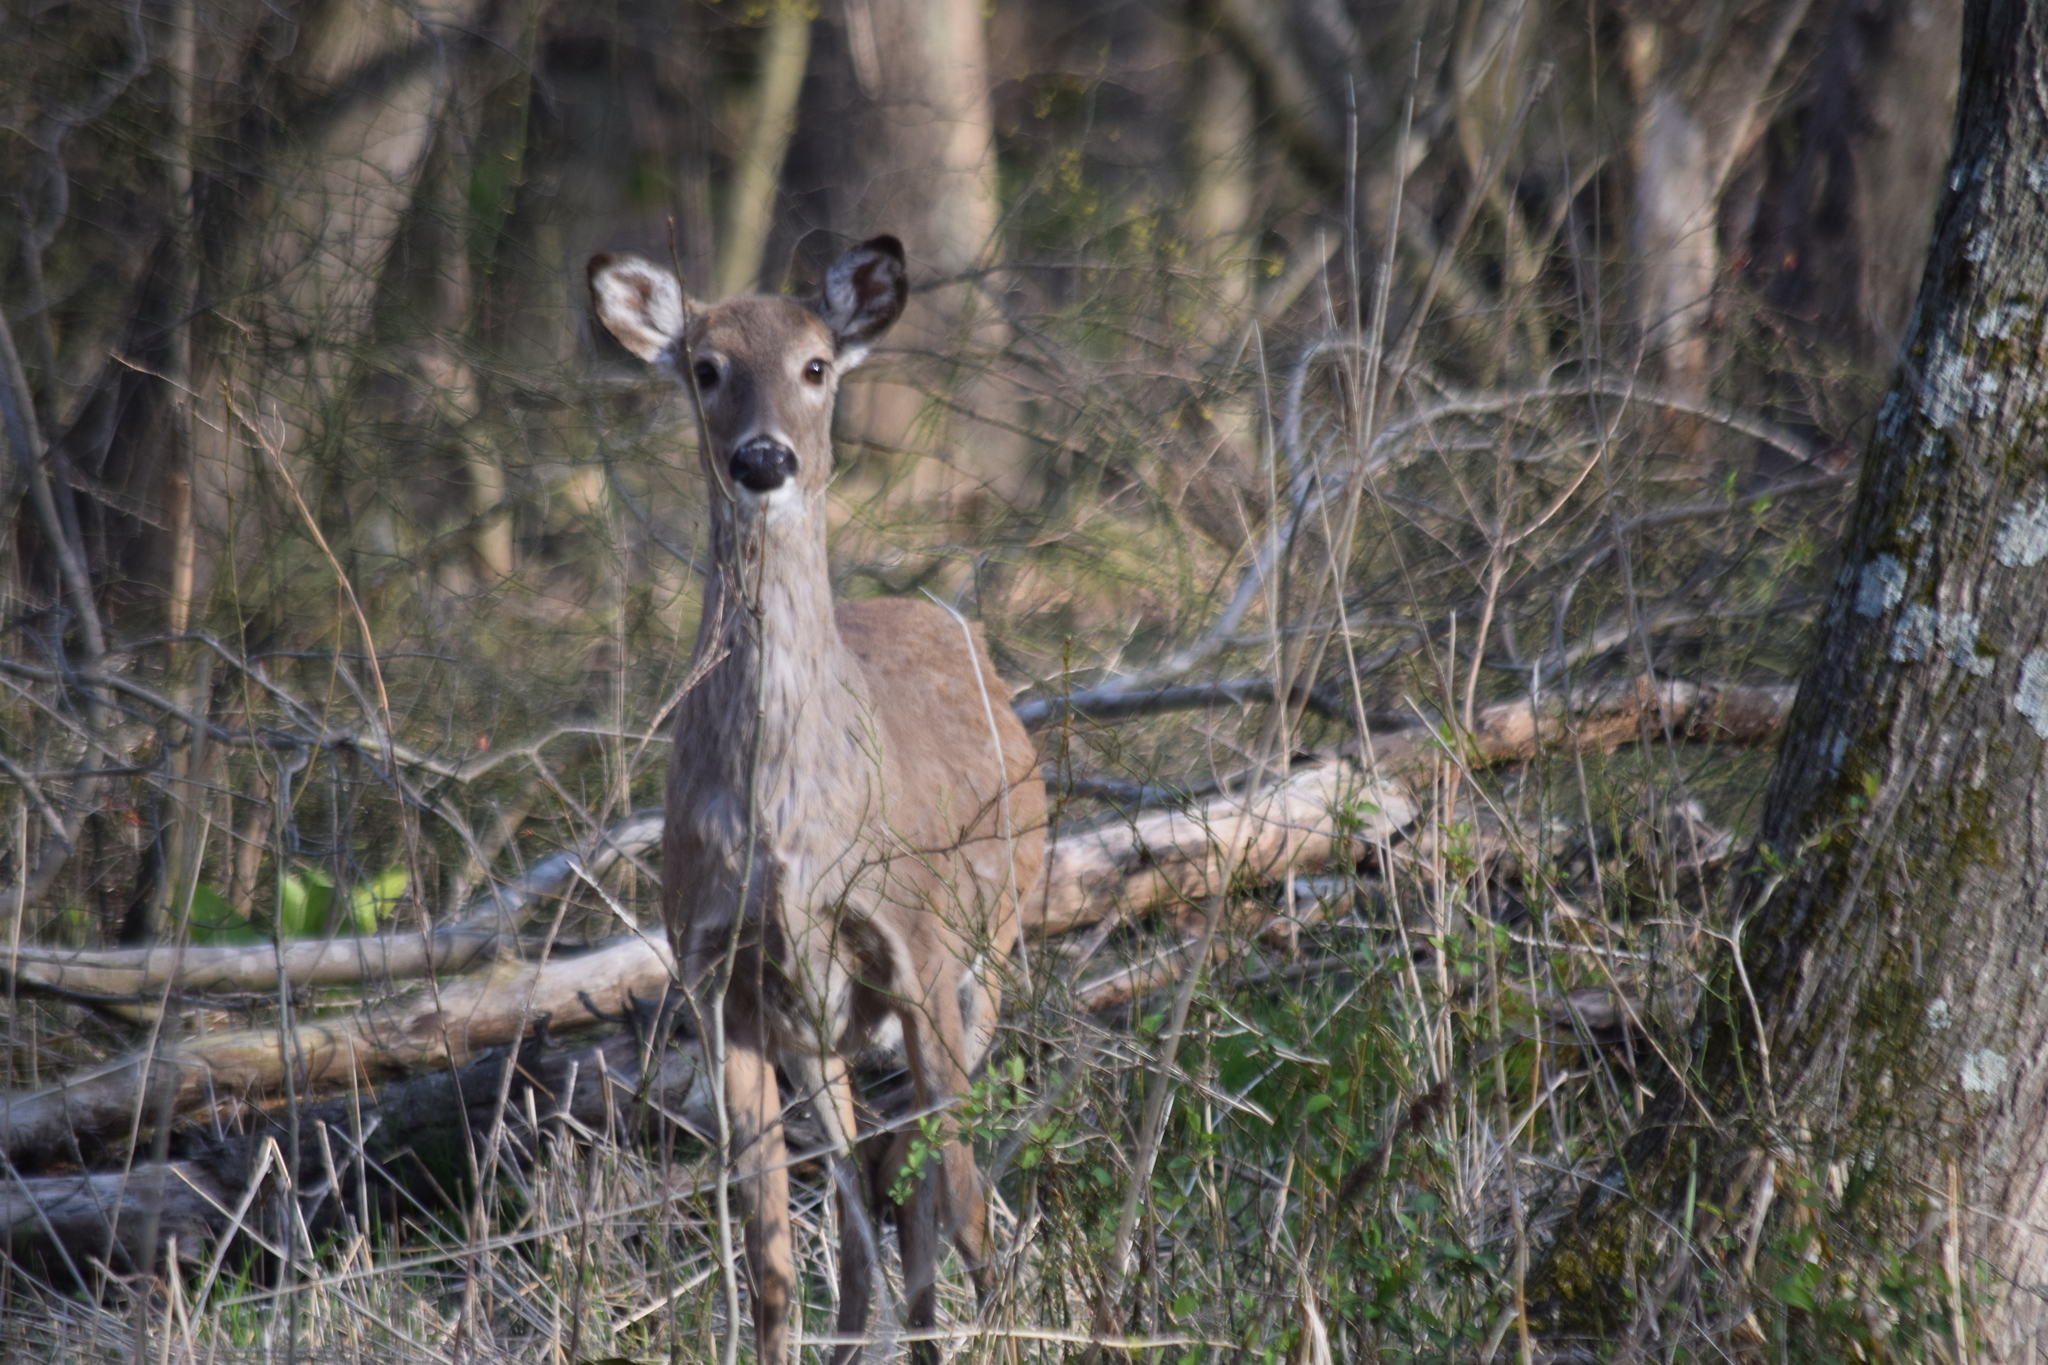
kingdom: Animalia
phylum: Chordata
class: Mammalia
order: Artiodactyla
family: Cervidae
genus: Odocoileus
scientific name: Odocoileus virginianus
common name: White-tailed deer
